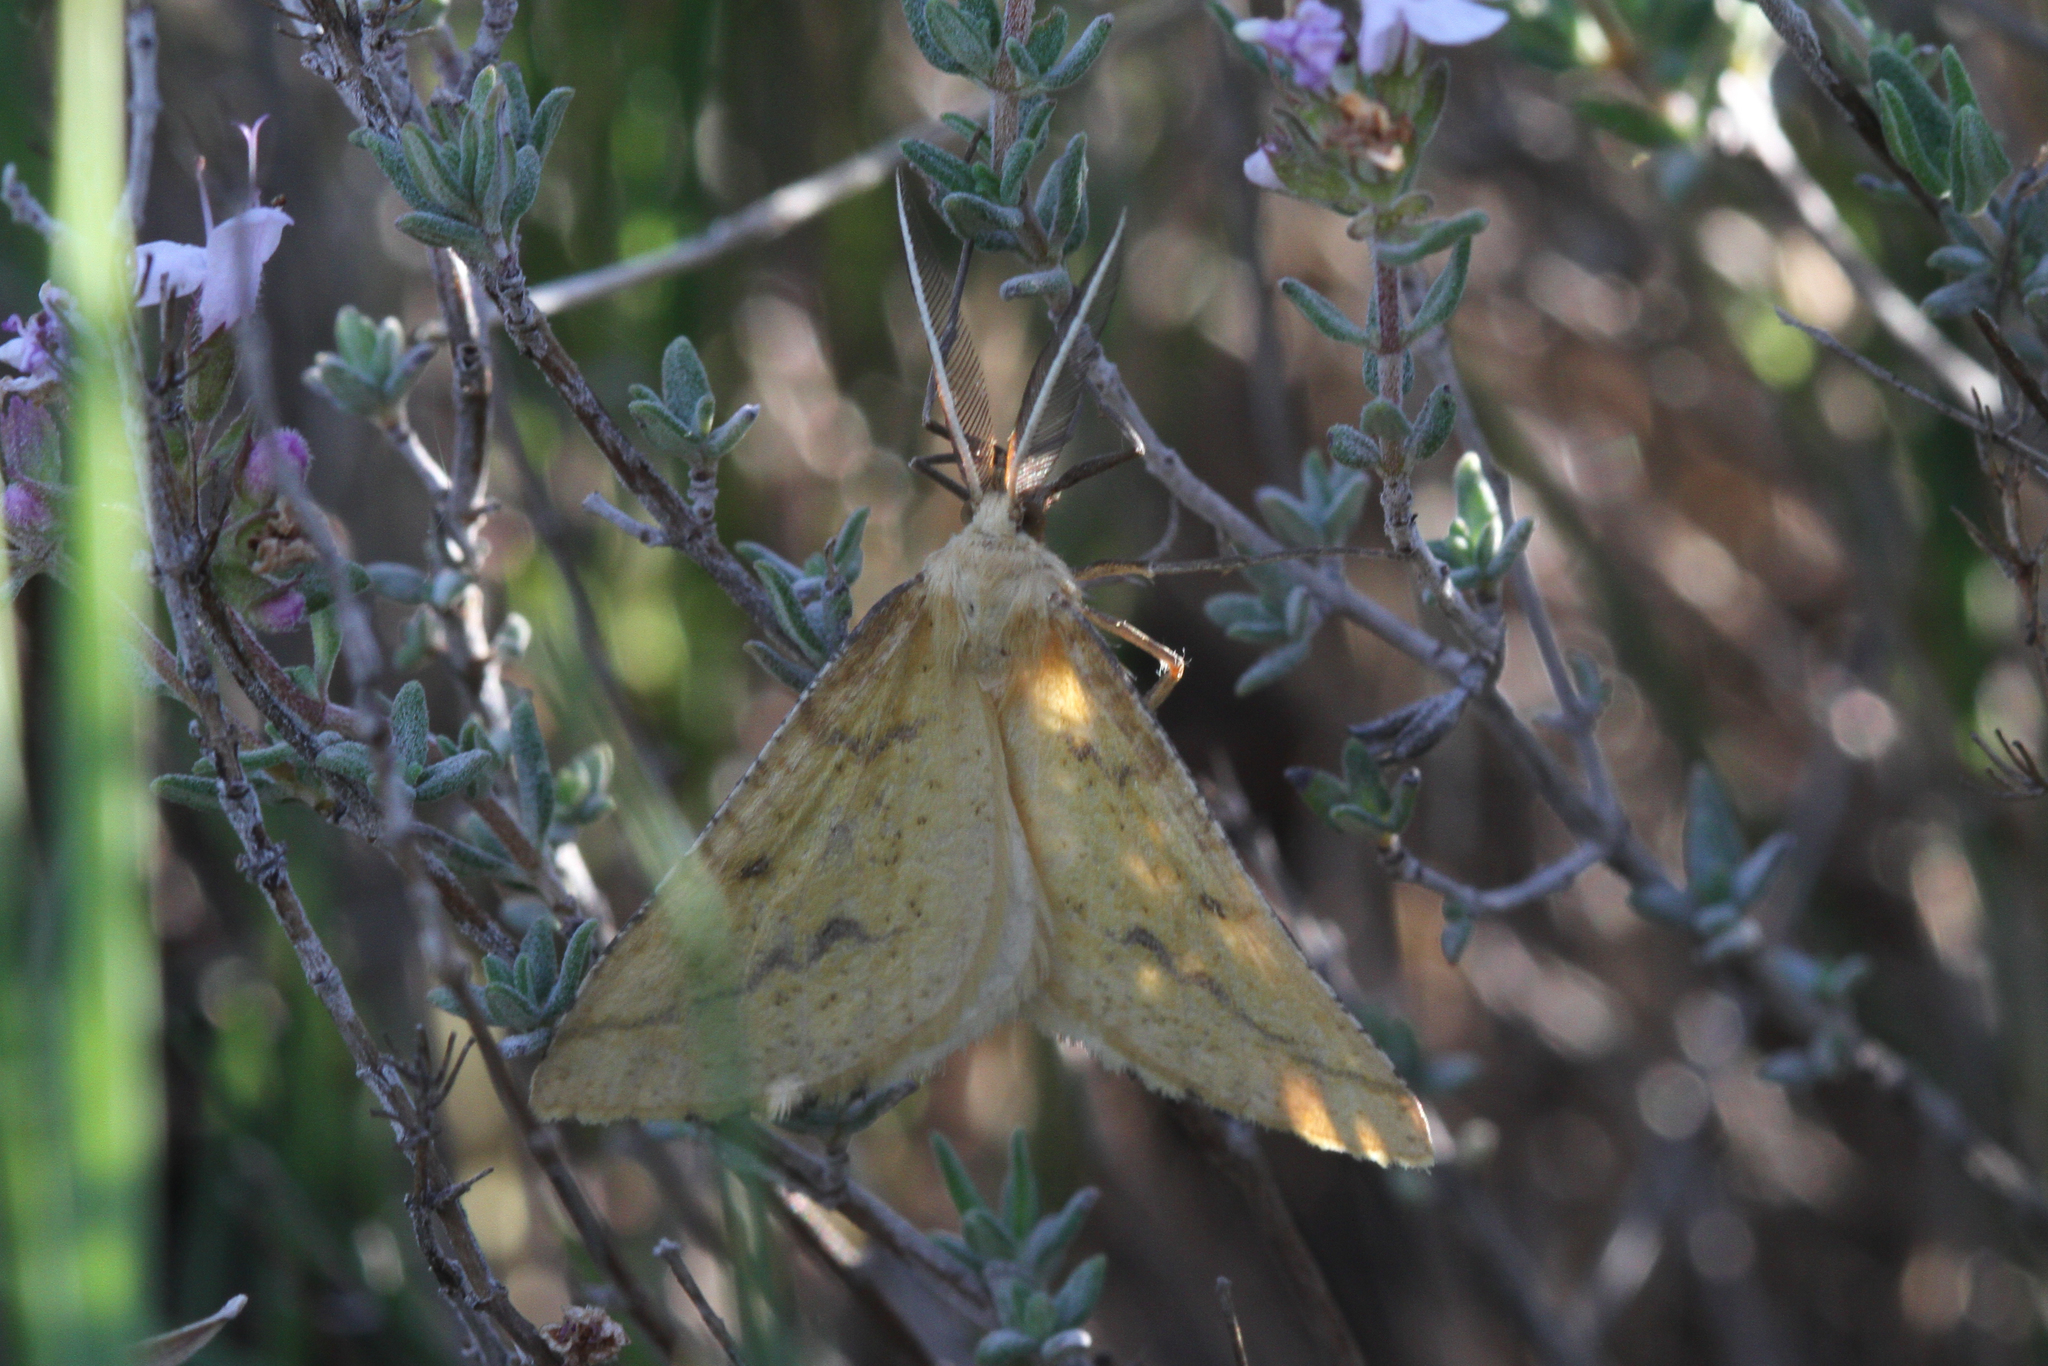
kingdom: Animalia
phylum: Arthropoda
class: Insecta
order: Lepidoptera
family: Geometridae
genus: Aspitates
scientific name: Aspitates ochrearia
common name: Yellow belle
